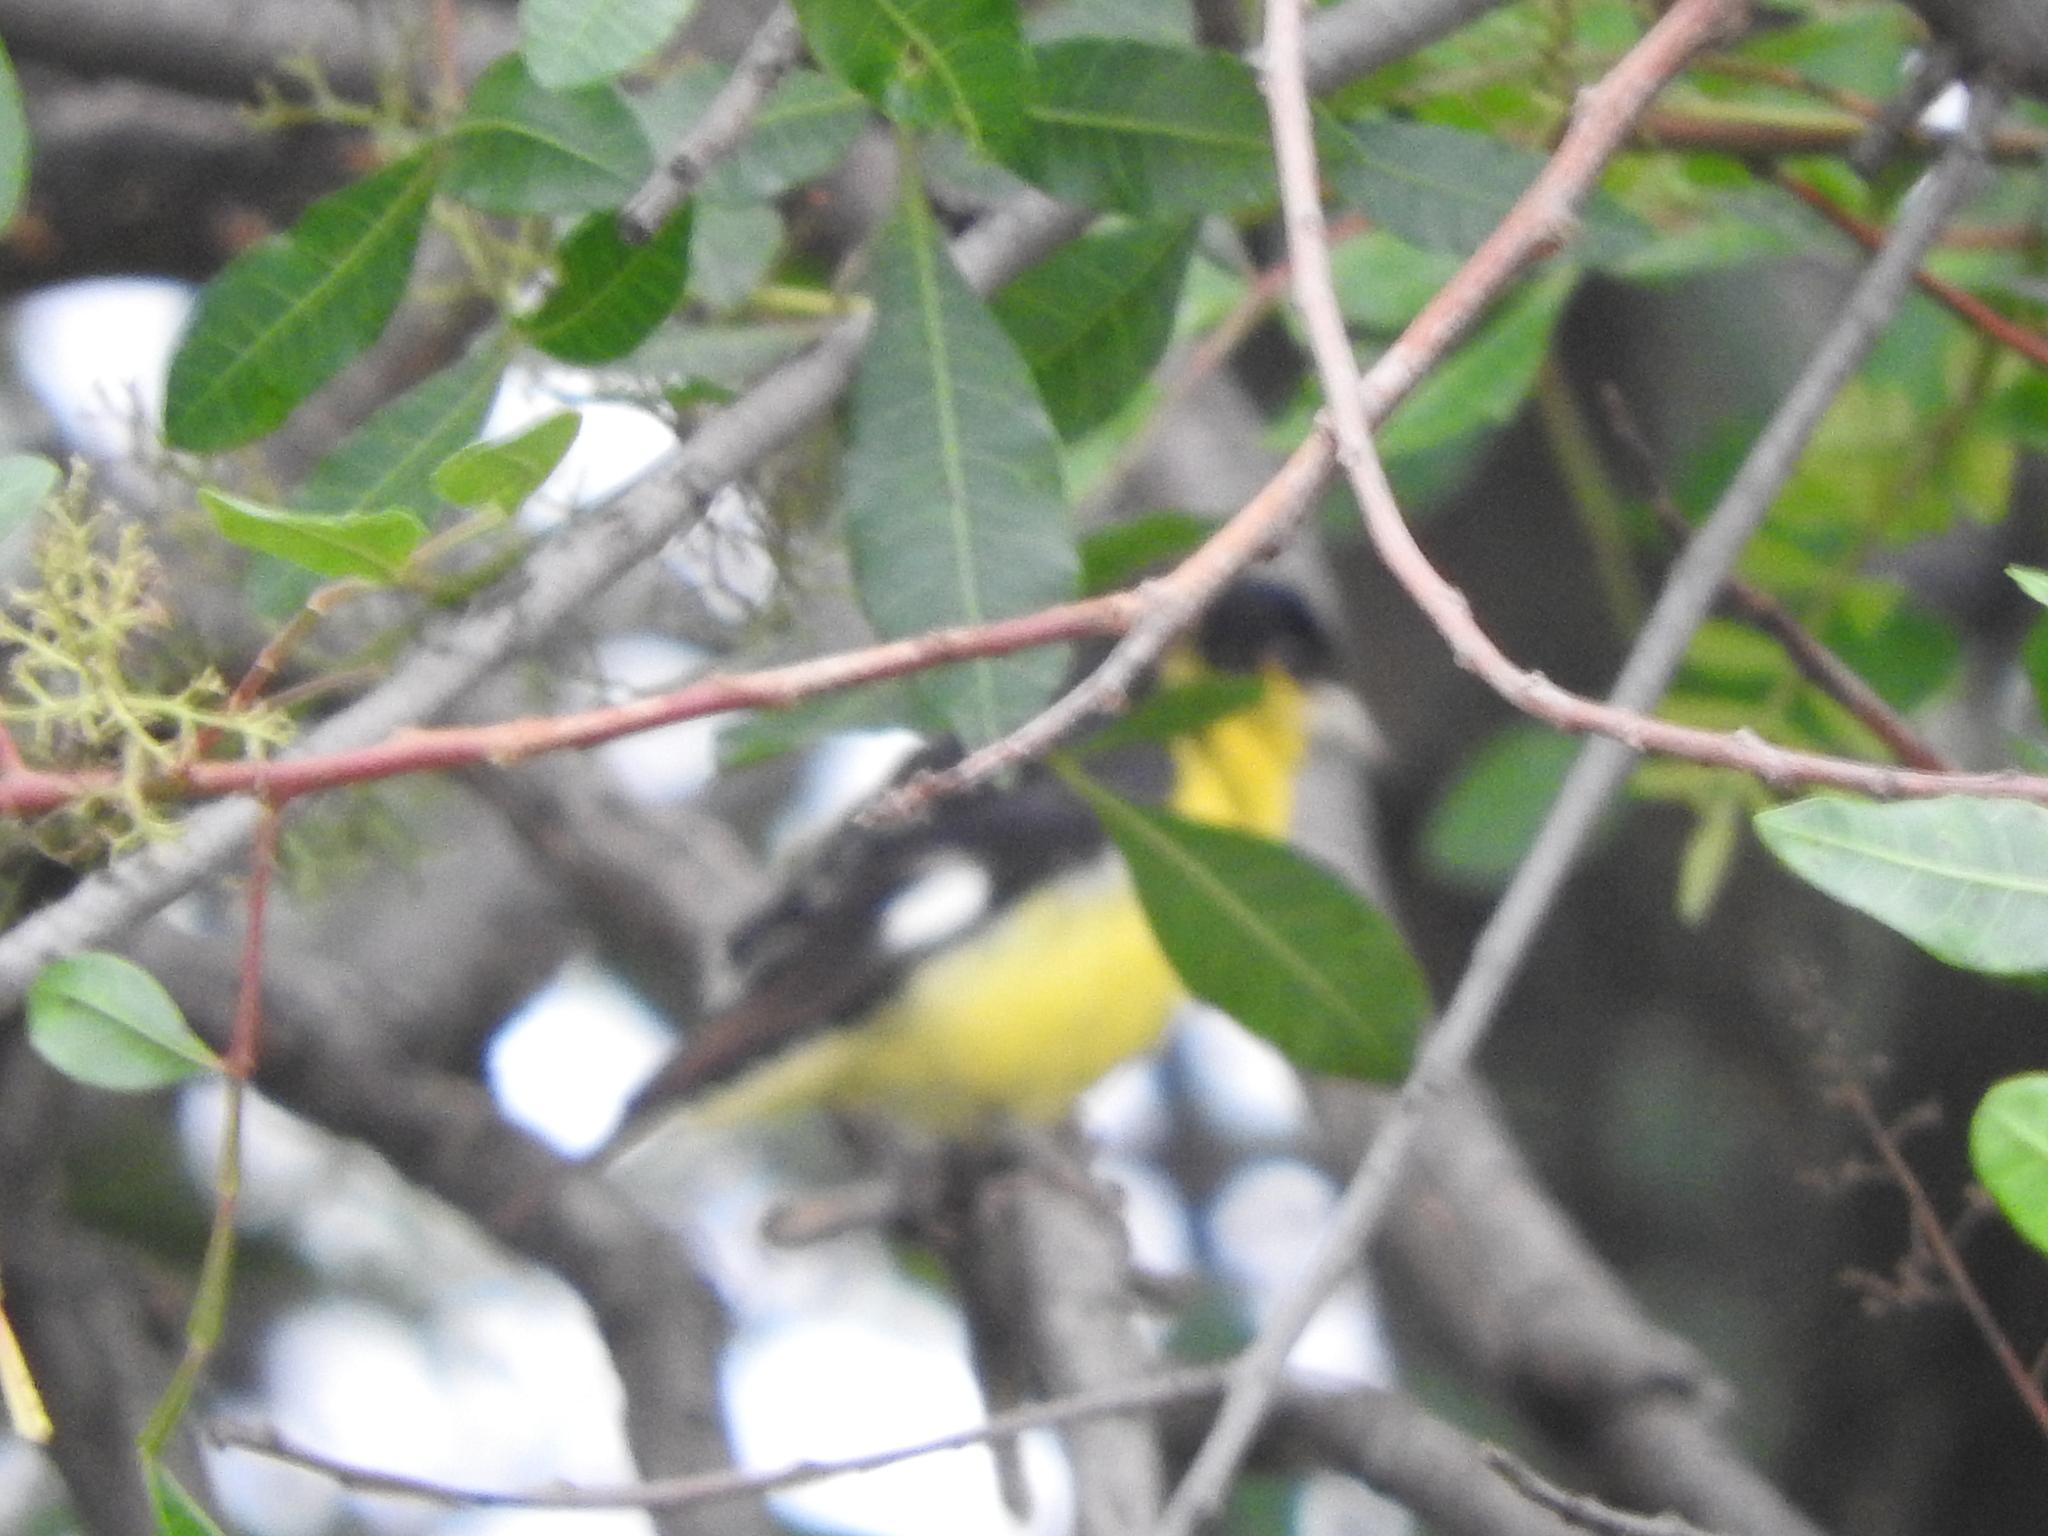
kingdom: Animalia
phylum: Chordata
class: Aves
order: Passeriformes
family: Fringillidae
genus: Spinus
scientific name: Spinus psaltria
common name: Lesser goldfinch
